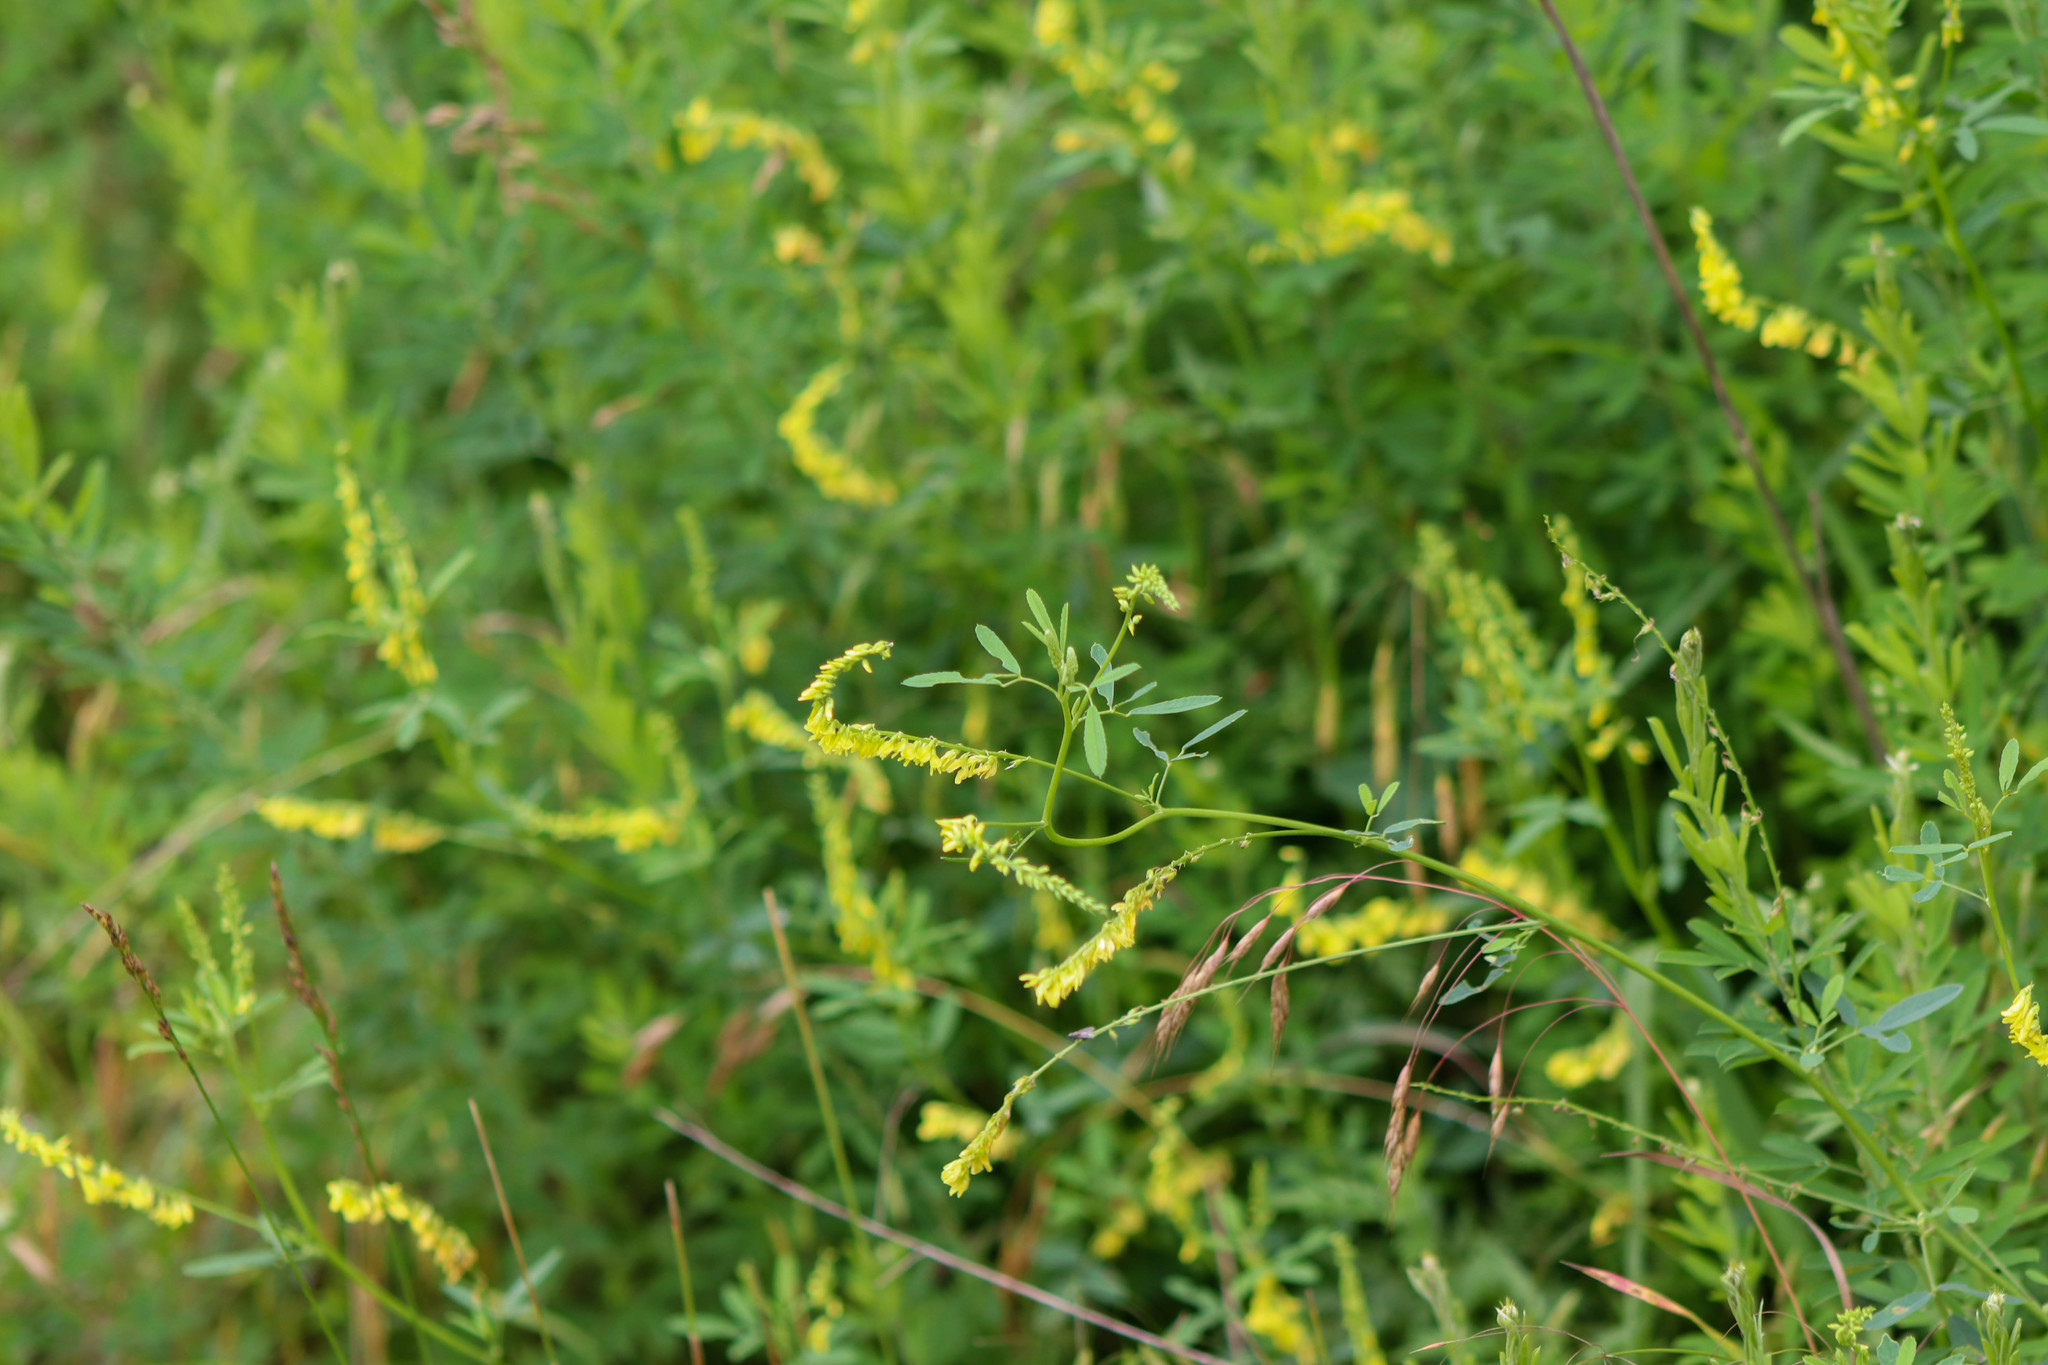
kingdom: Plantae
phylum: Tracheophyta
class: Magnoliopsida
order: Fabales
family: Fabaceae
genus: Melilotus
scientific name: Melilotus officinalis
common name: Sweetclover
